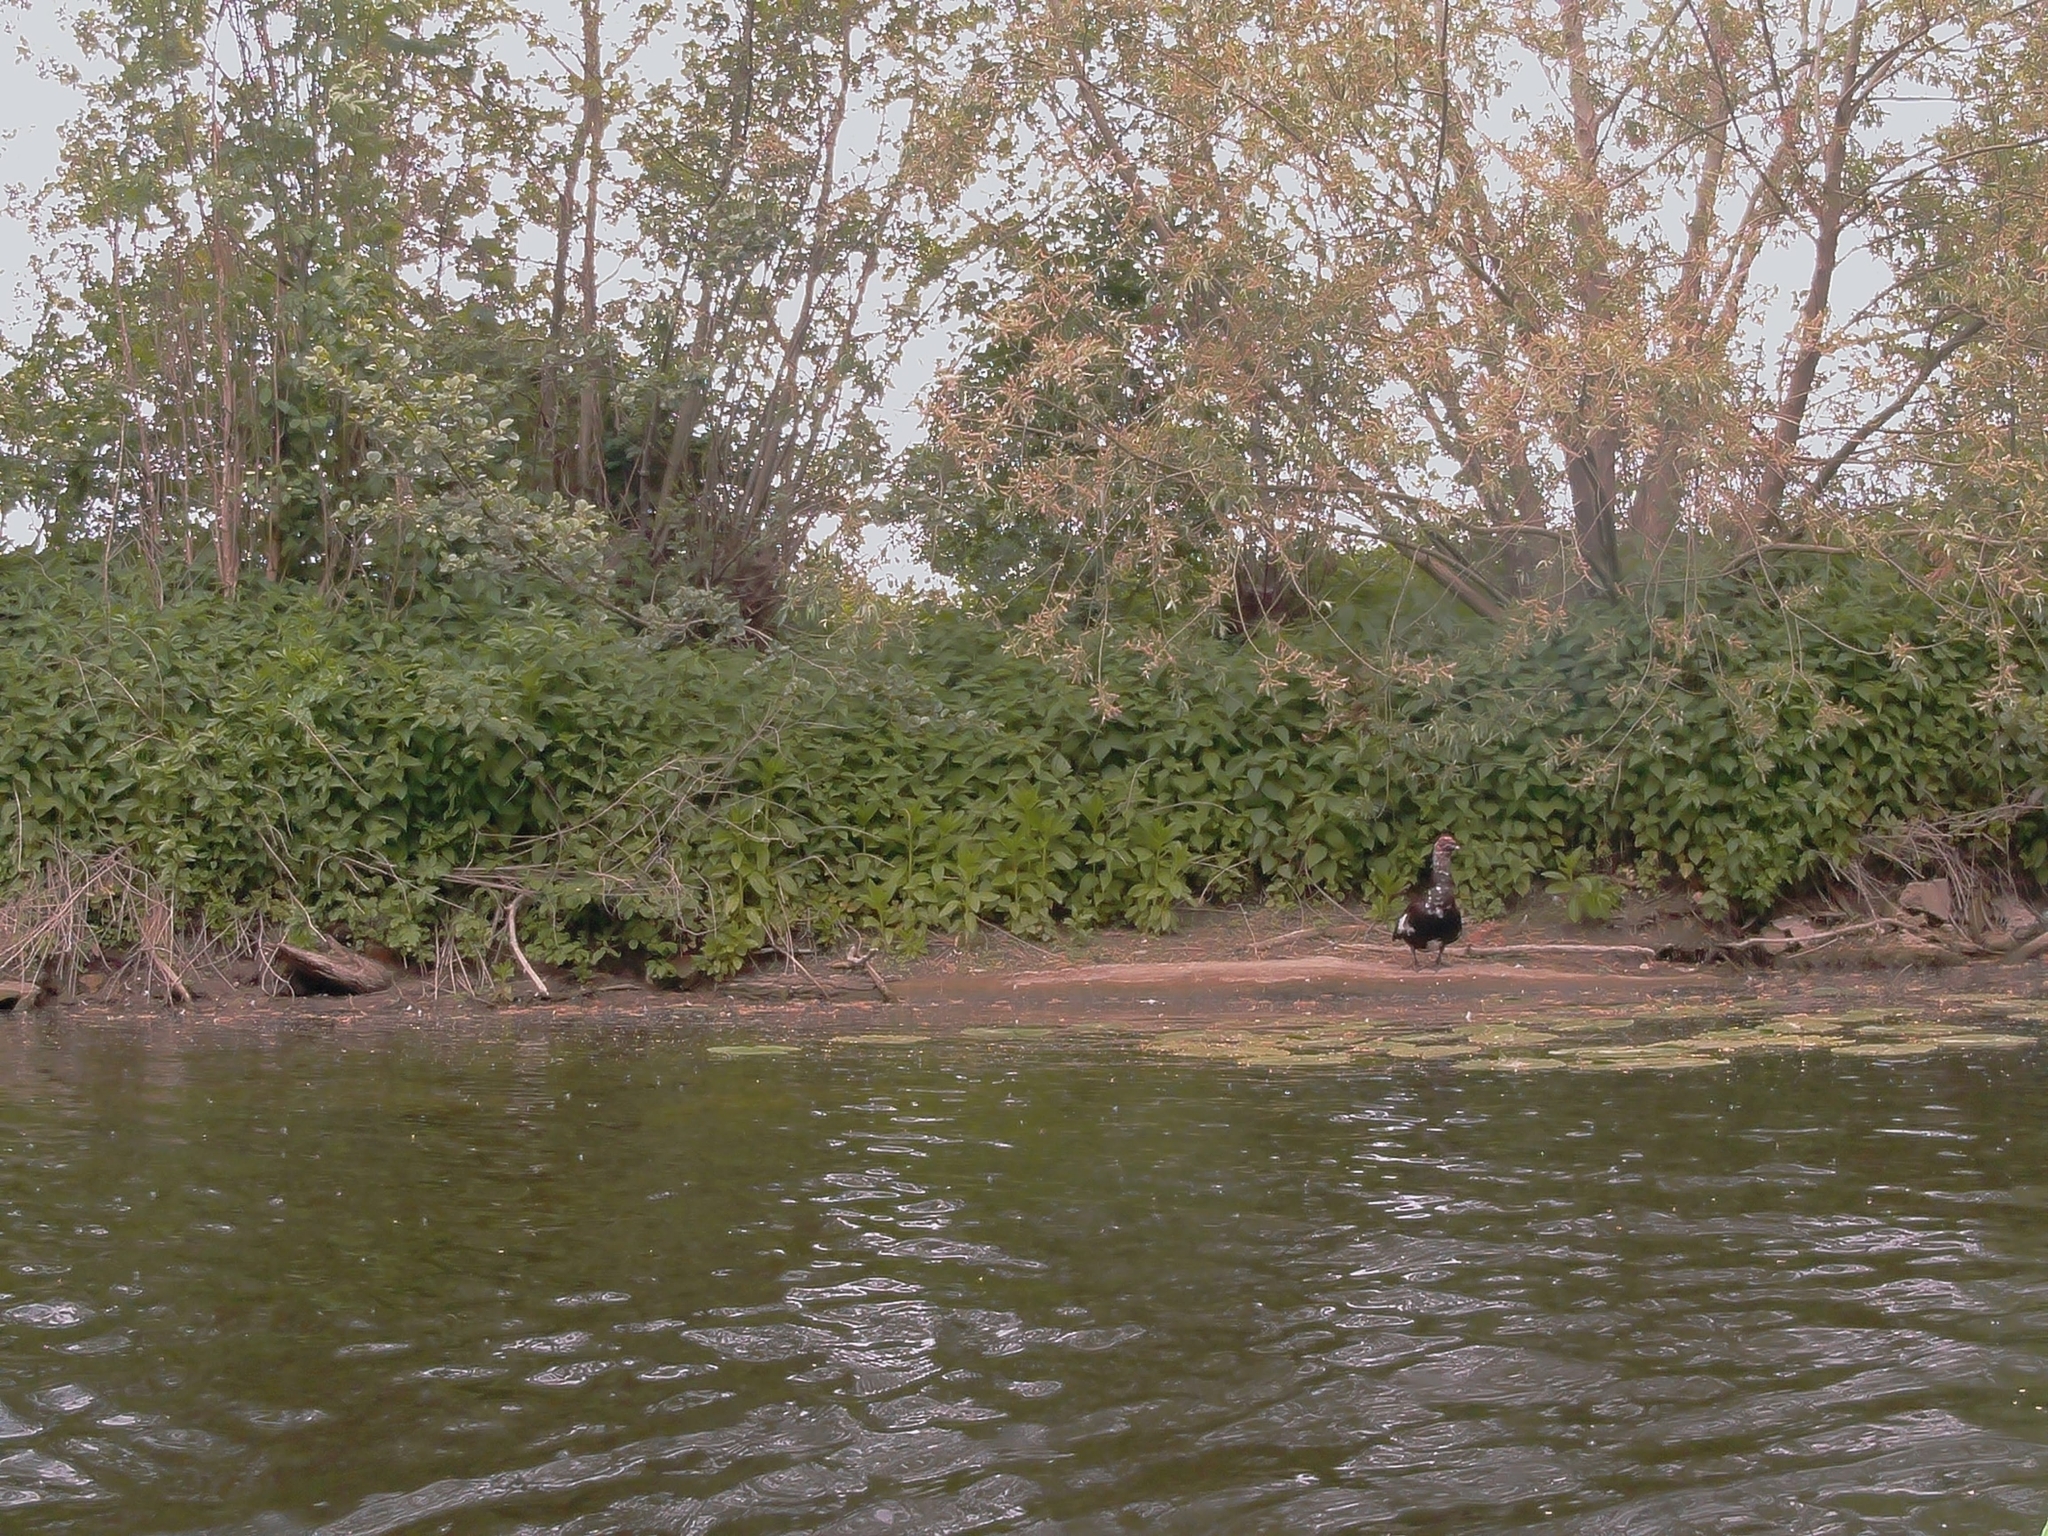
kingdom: Animalia
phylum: Chordata
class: Aves
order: Anseriformes
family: Anatidae
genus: Cairina
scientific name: Cairina moschata
